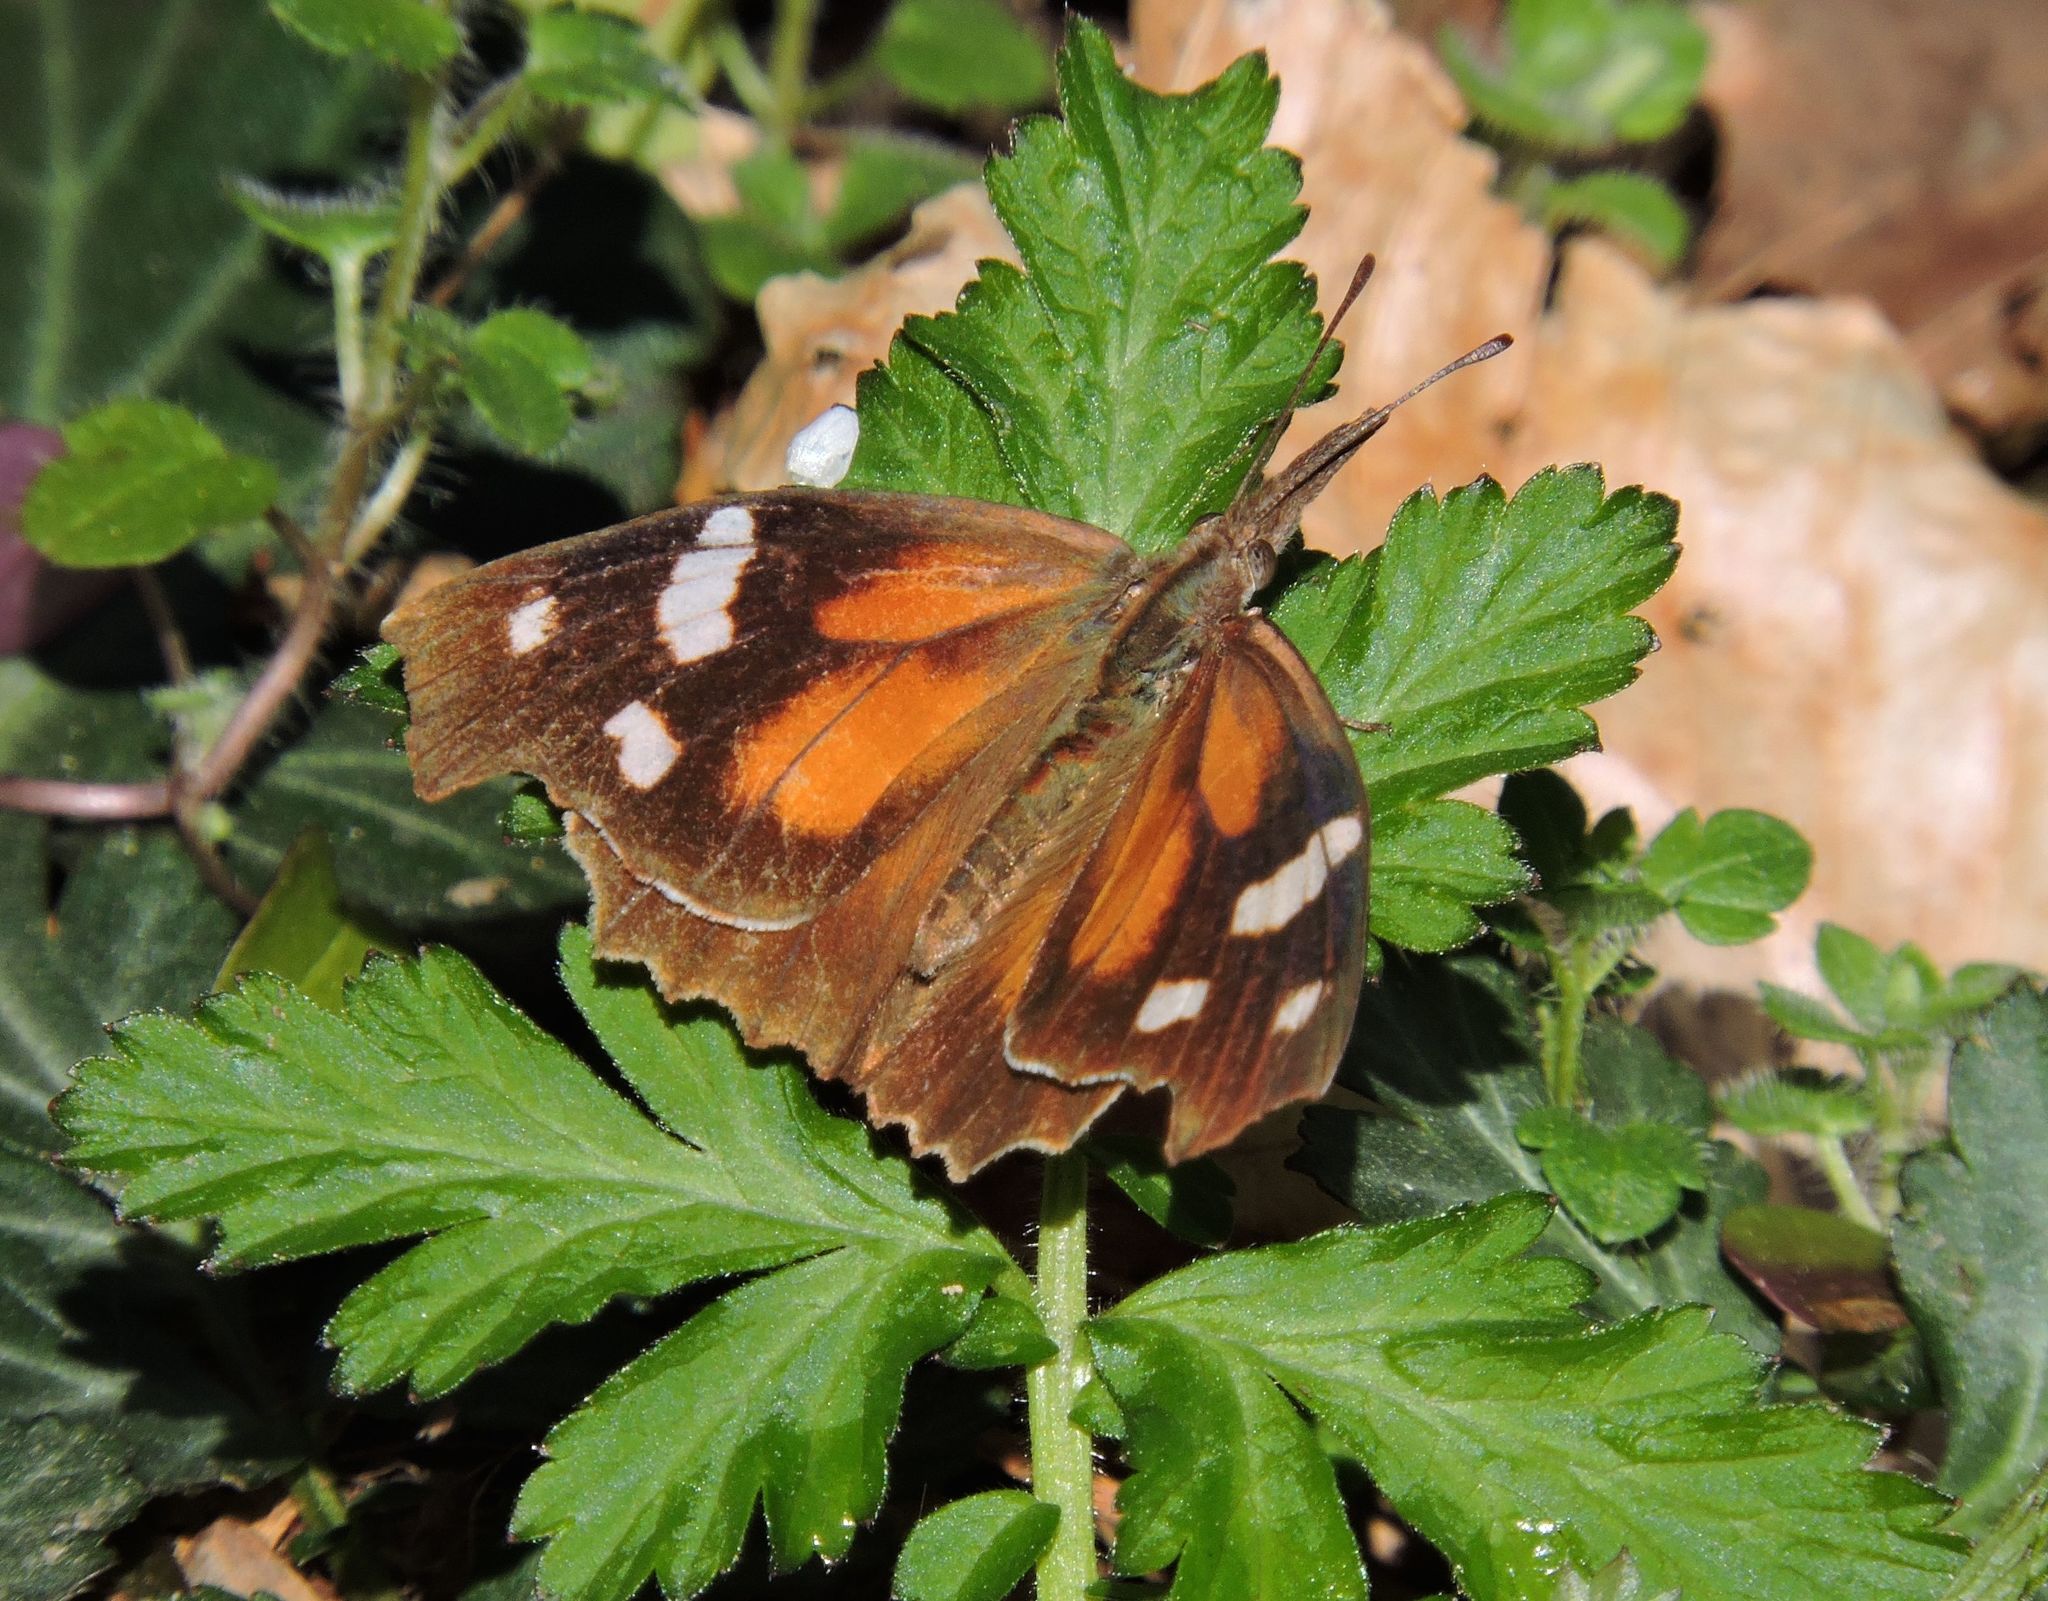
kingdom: Animalia
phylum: Arthropoda
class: Insecta
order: Lepidoptera
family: Nymphalidae
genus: Libytheana
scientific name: Libytheana carinenta
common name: American snout
